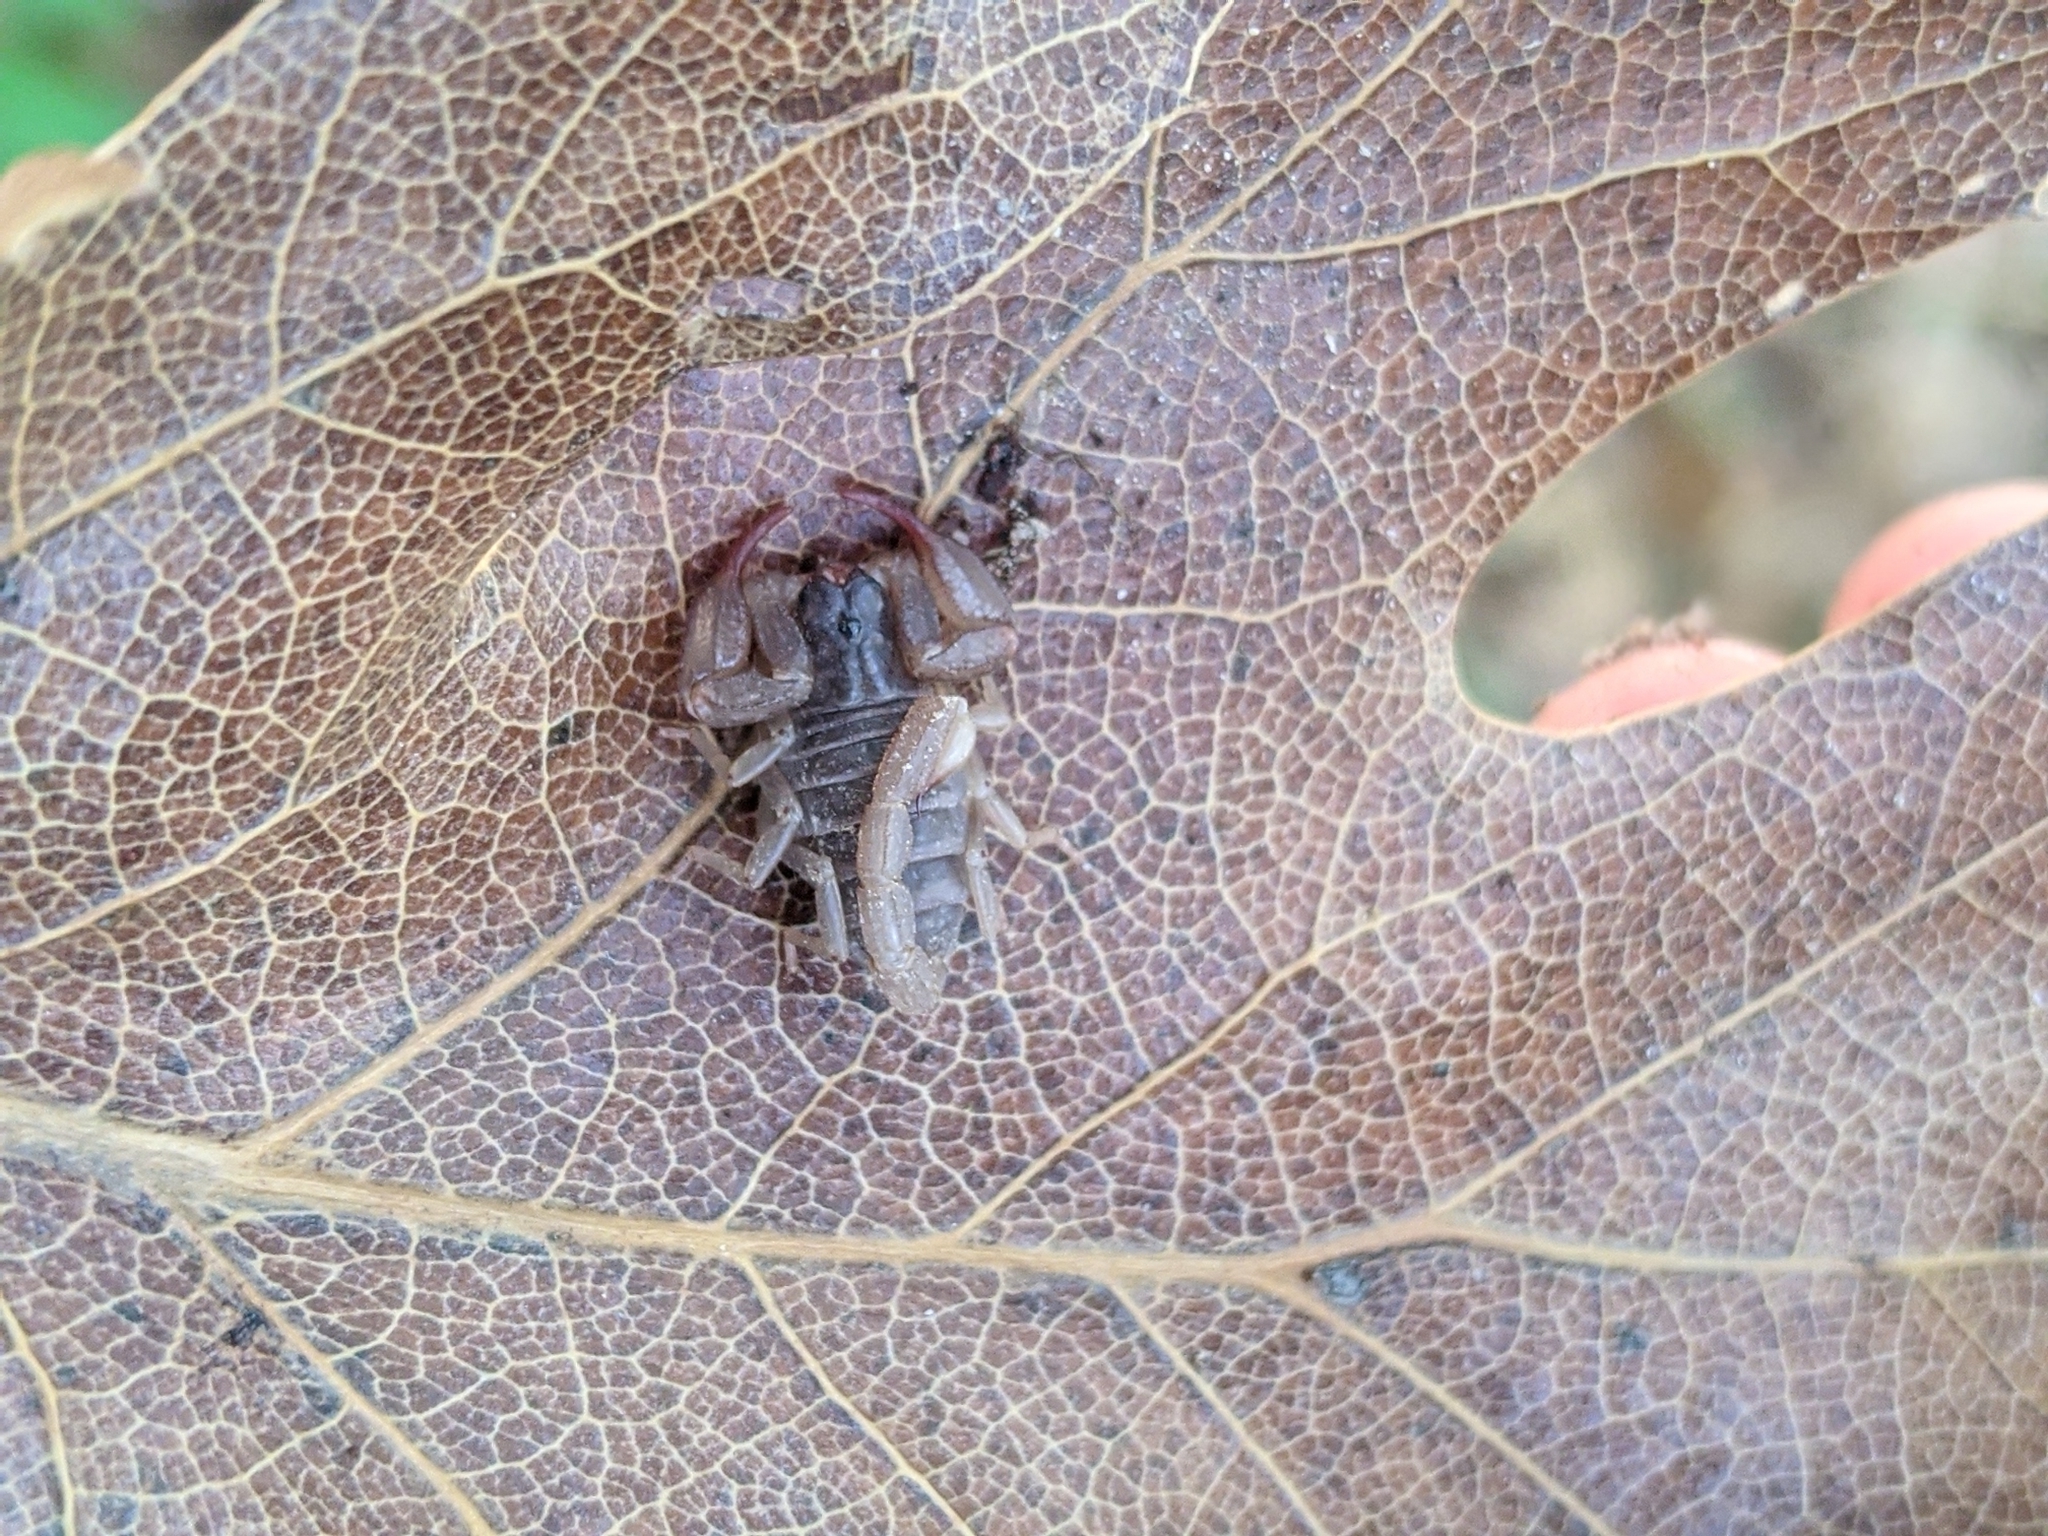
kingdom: Animalia
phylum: Arthropoda
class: Arachnida
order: Scorpiones
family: Chactidae
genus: Uroctonus
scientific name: Uroctonus mordax
